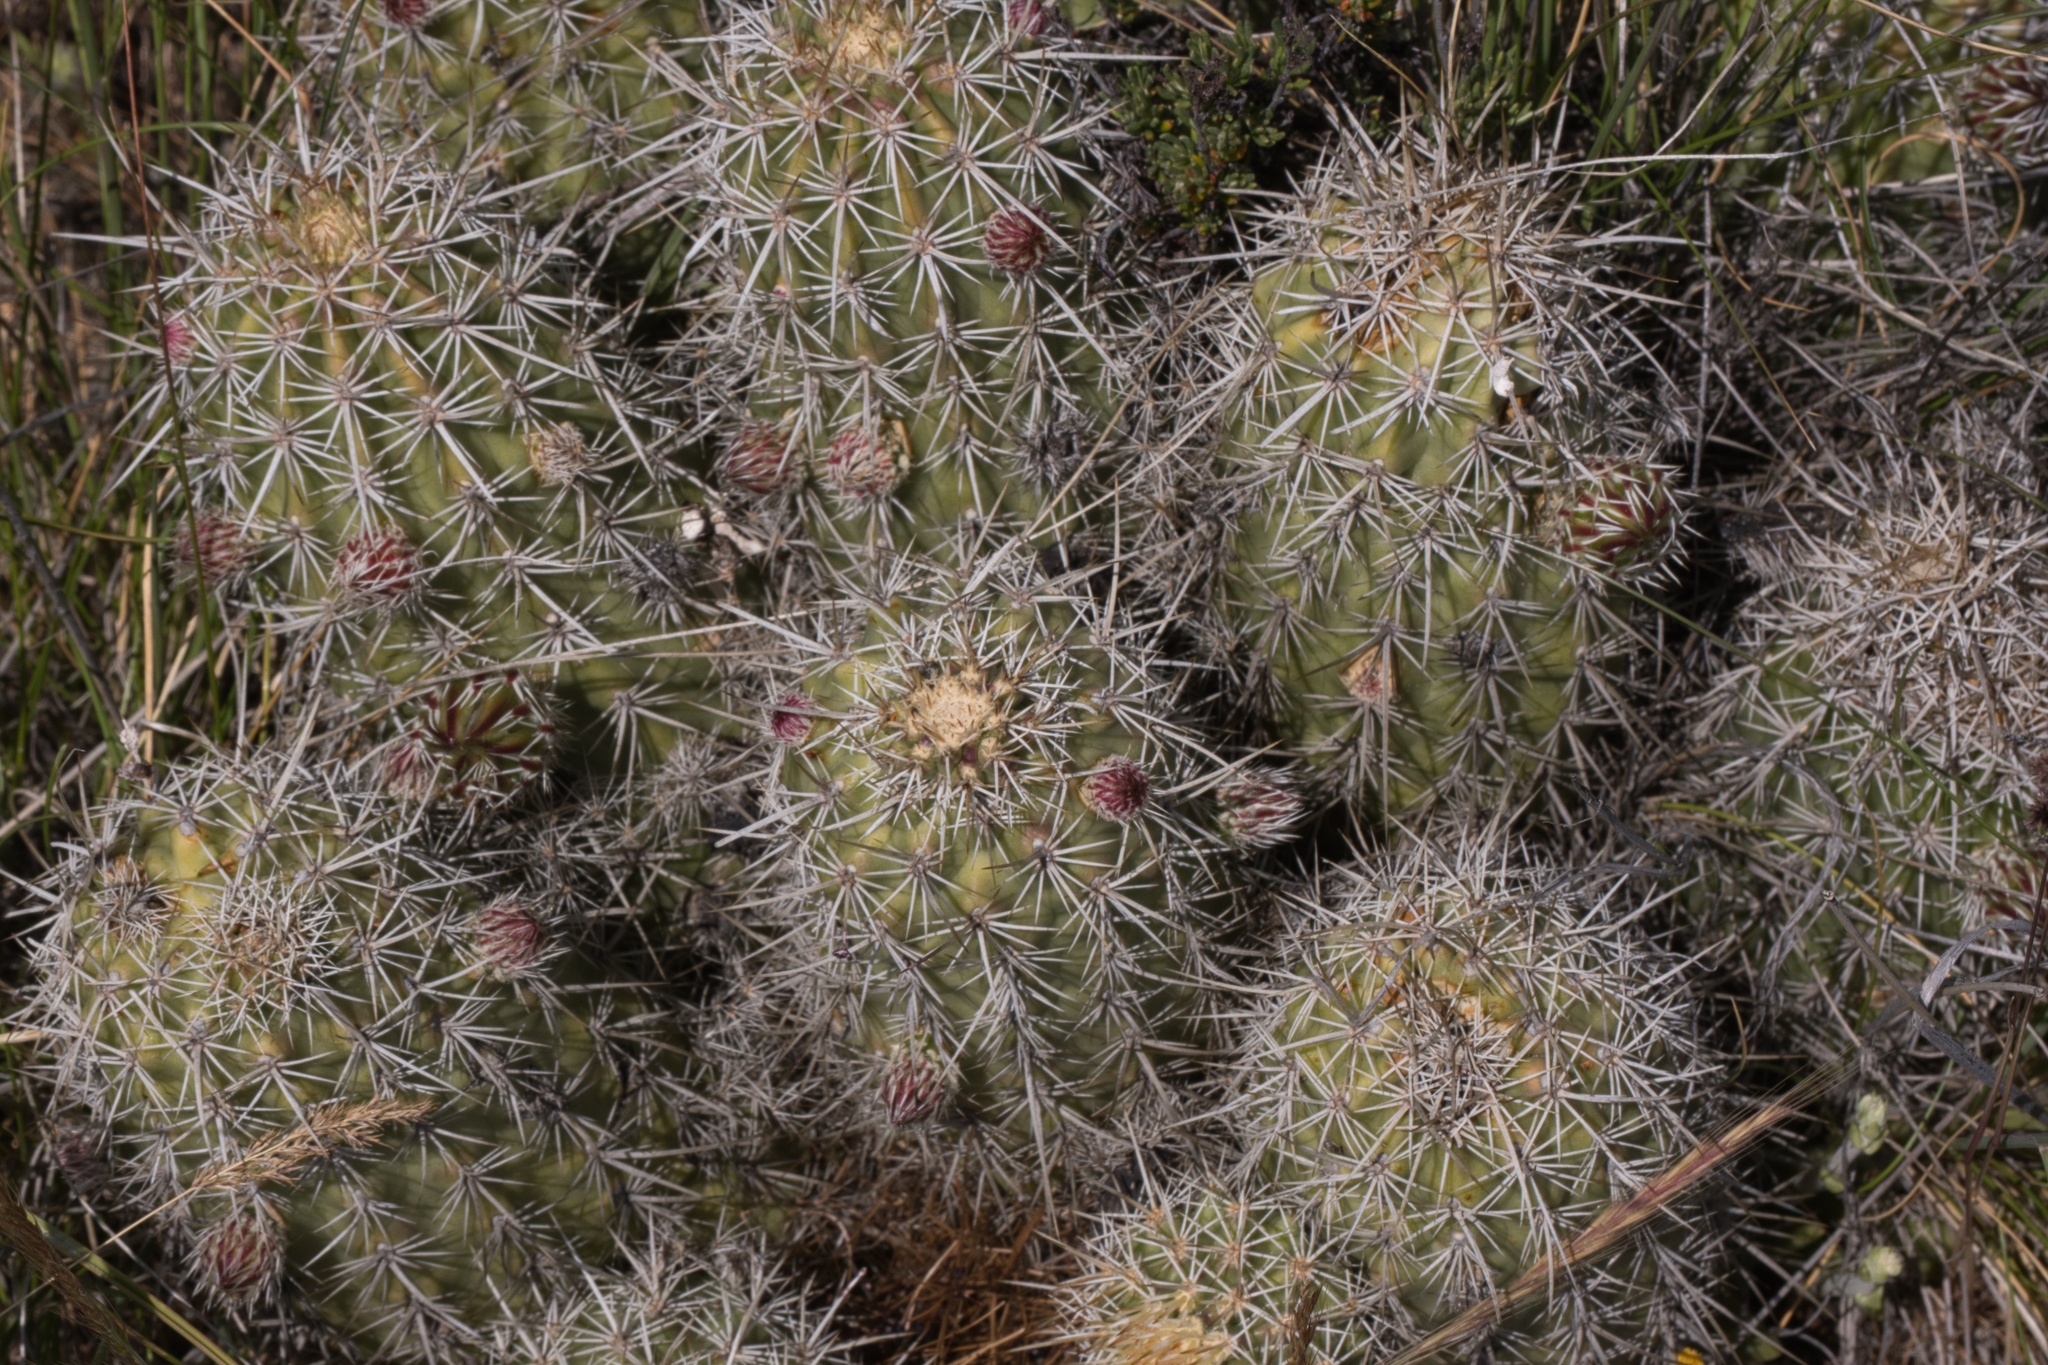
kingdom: Plantae
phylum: Tracheophyta
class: Magnoliopsida
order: Caryophyllales
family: Cactaceae
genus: Echinocereus
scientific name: Echinocereus engelmannii
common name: Engelmann's hedgehog cactus
